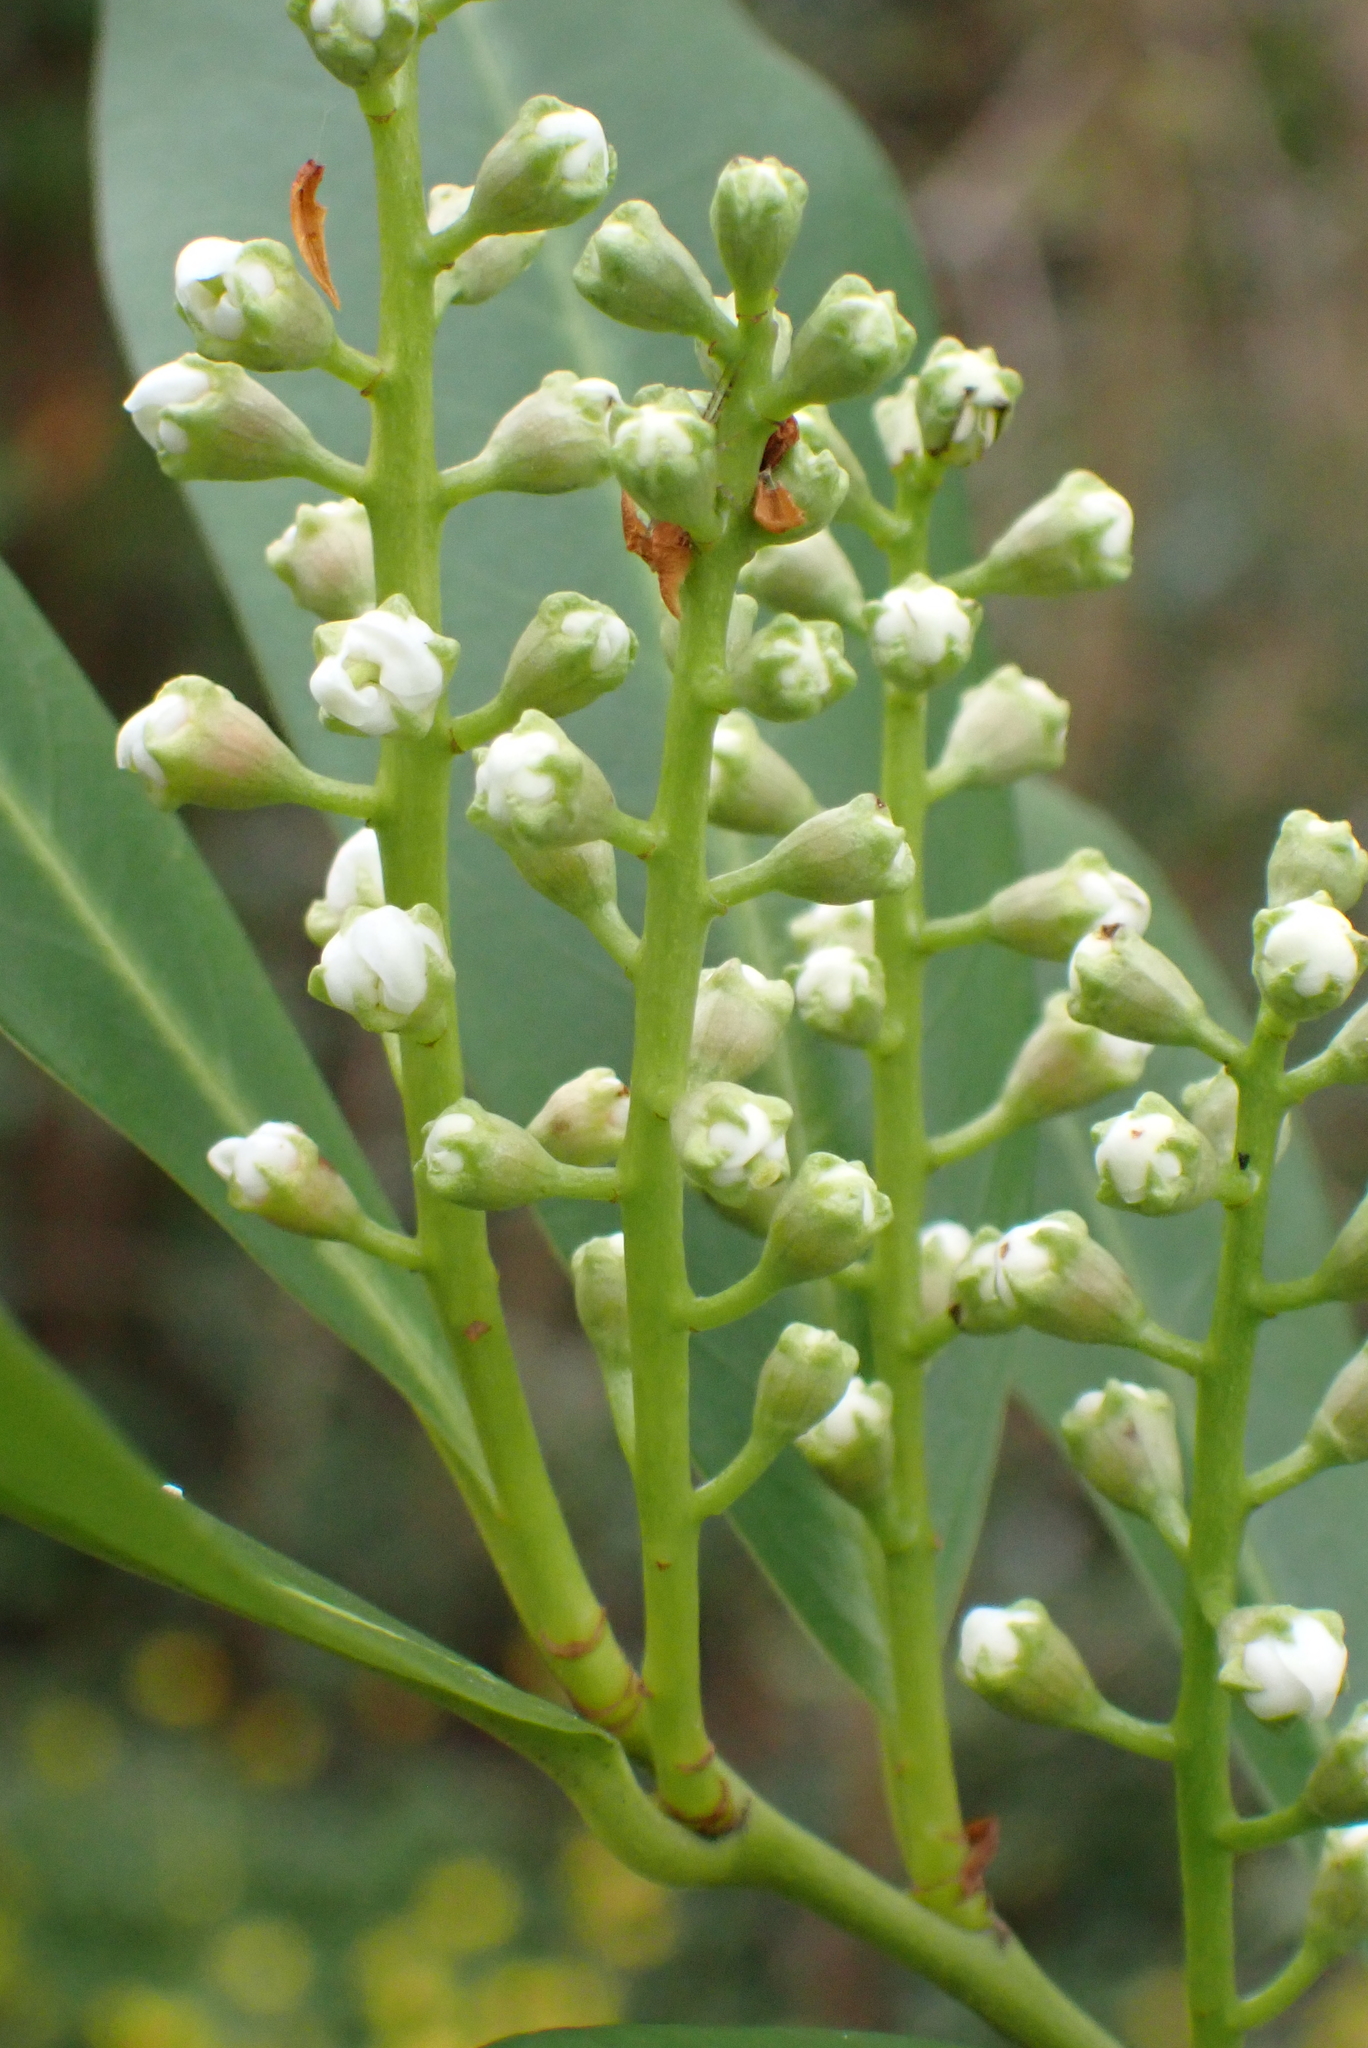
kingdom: Plantae
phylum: Tracheophyta
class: Magnoliopsida
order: Rosales
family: Rosaceae
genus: Prunus
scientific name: Prunus laurocerasus
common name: Cherry laurel
